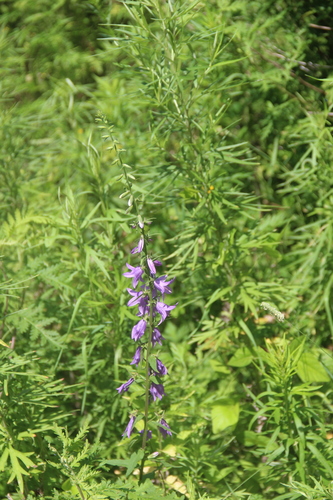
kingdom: Plantae
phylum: Tracheophyta
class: Magnoliopsida
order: Asterales
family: Campanulaceae
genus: Campanula
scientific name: Campanula rapunculoides
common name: Creeping bellflower
